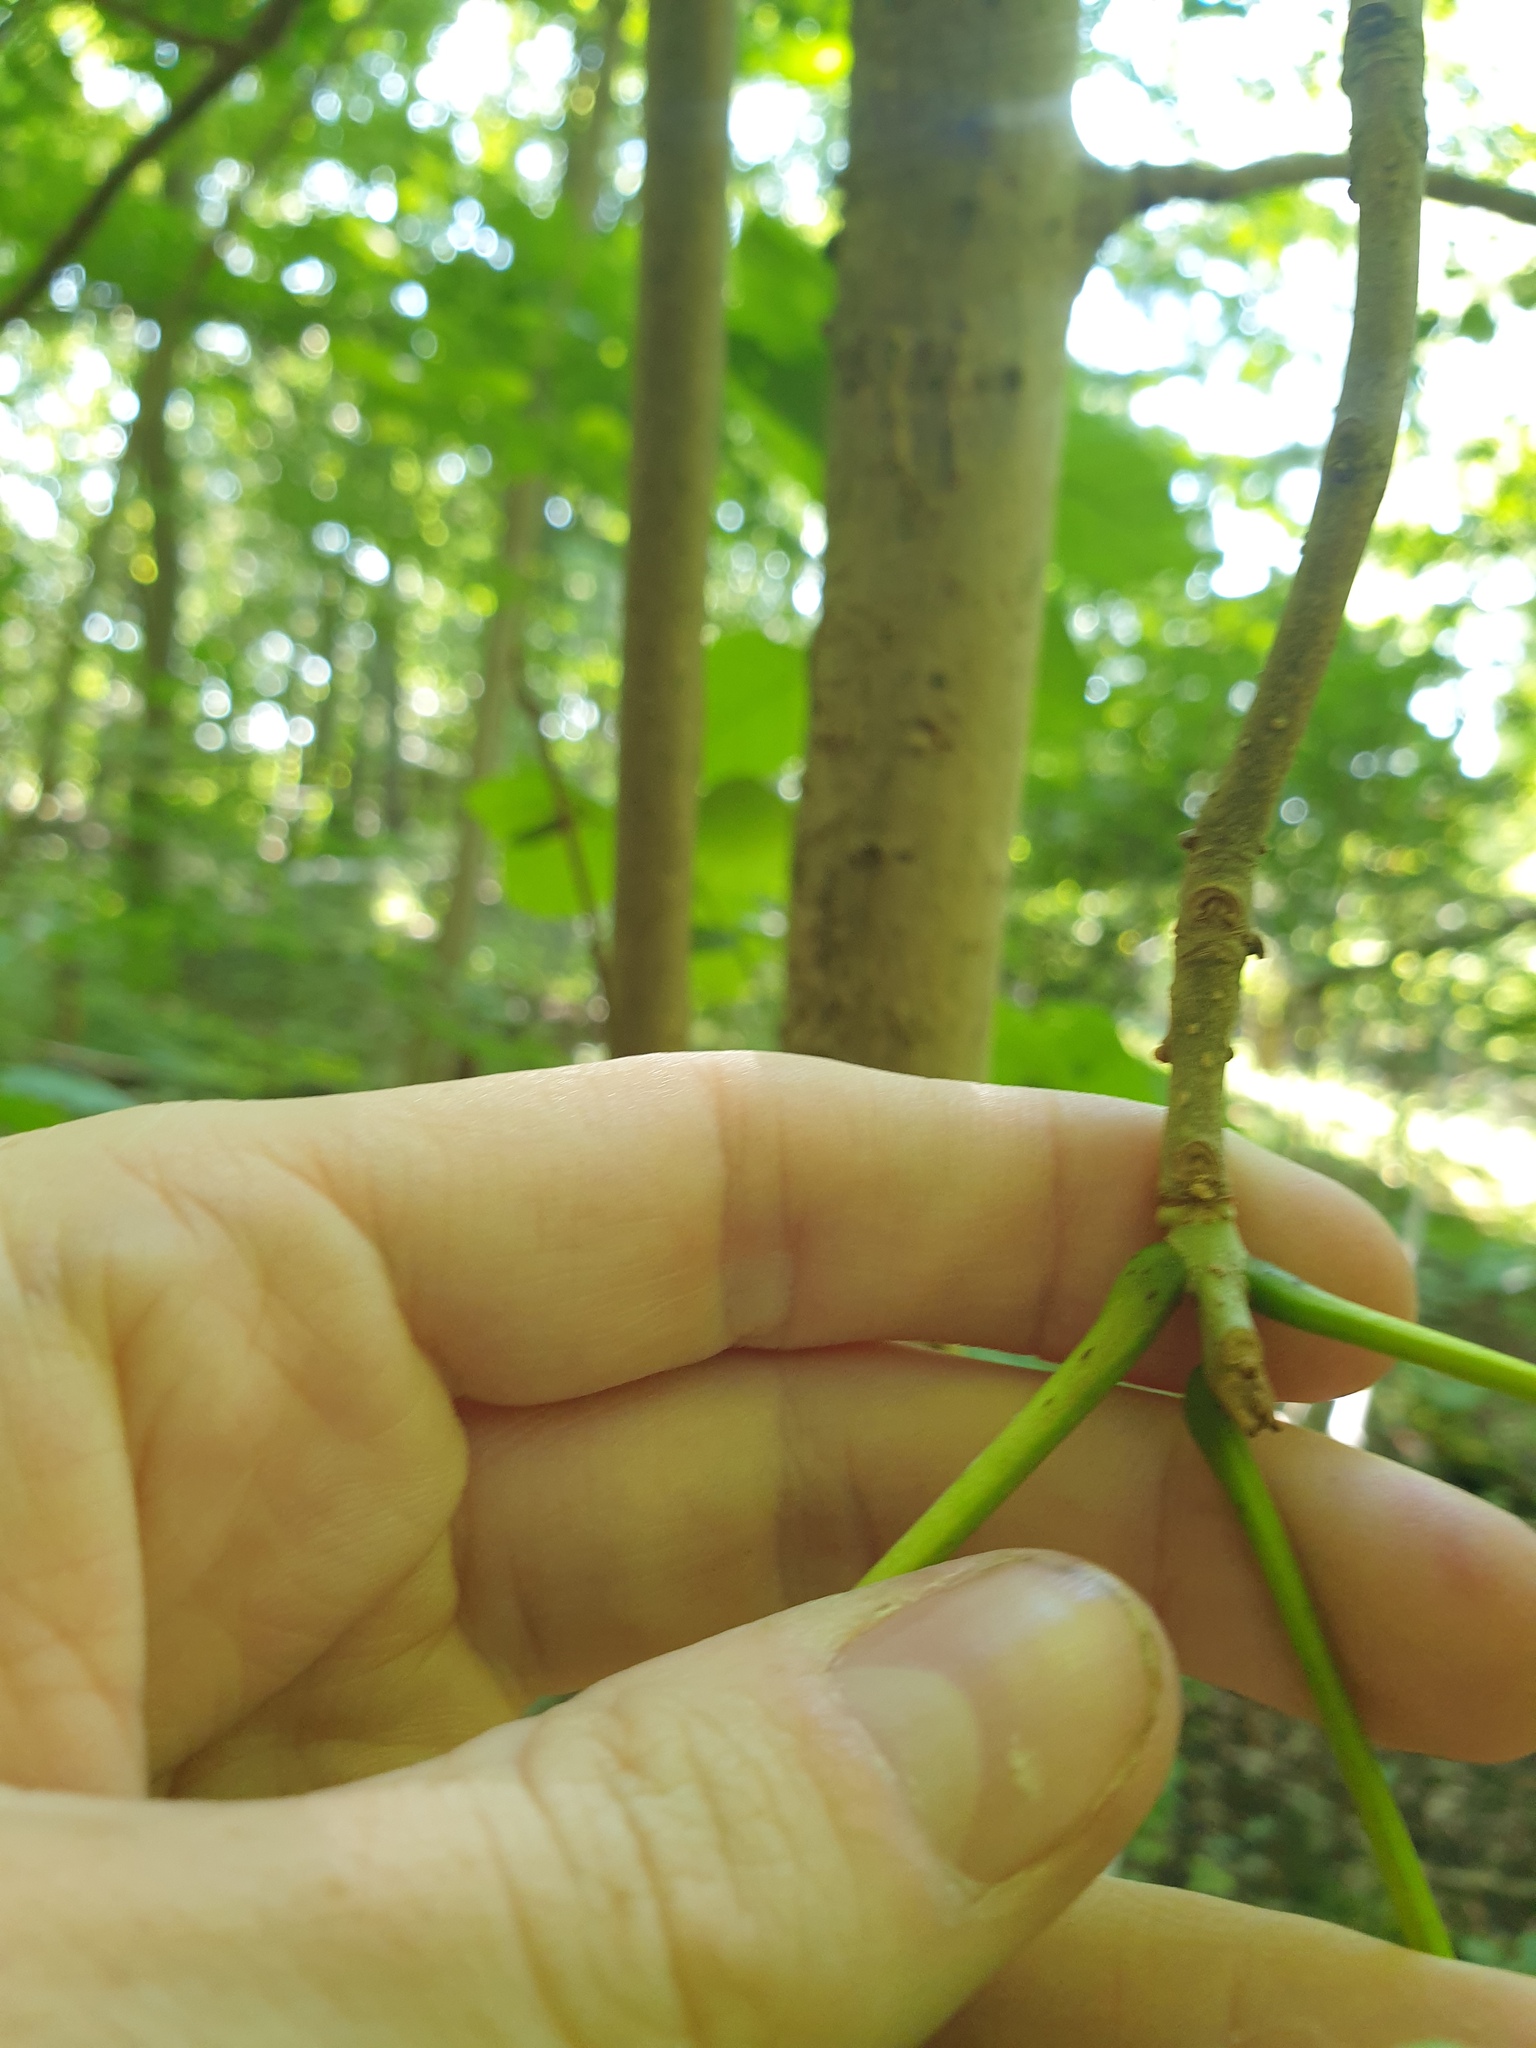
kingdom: Plantae
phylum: Tracheophyta
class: Magnoliopsida
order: Lamiales
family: Oleaceae
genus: Fraxinus
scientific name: Fraxinus nigra
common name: Black ash
